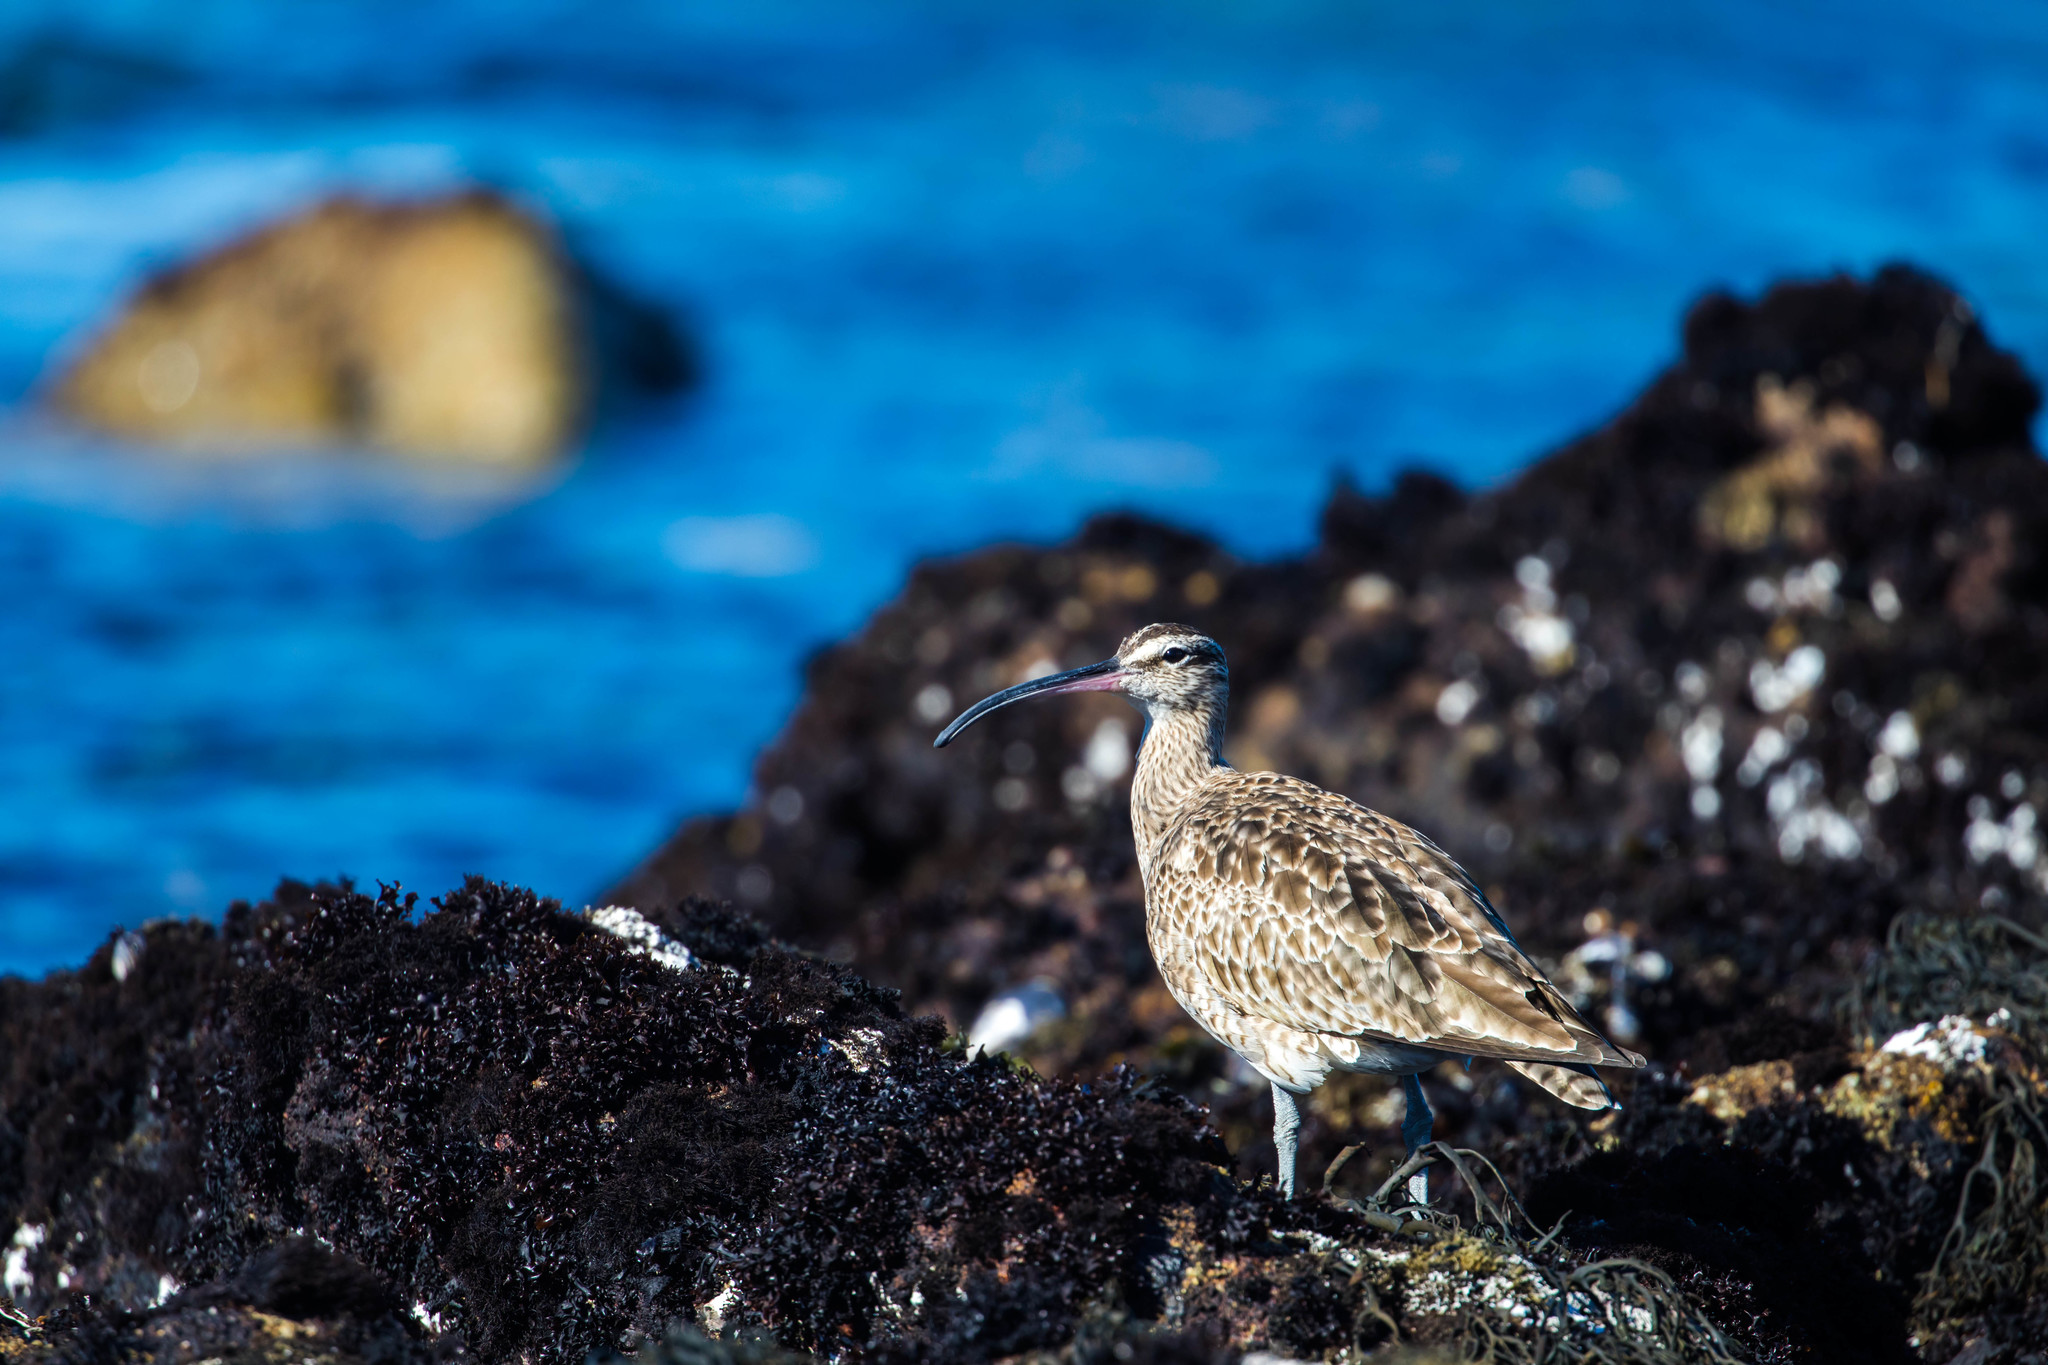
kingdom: Animalia
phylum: Chordata
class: Aves
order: Charadriiformes
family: Scolopacidae
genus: Numenius
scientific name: Numenius phaeopus
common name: Whimbrel
